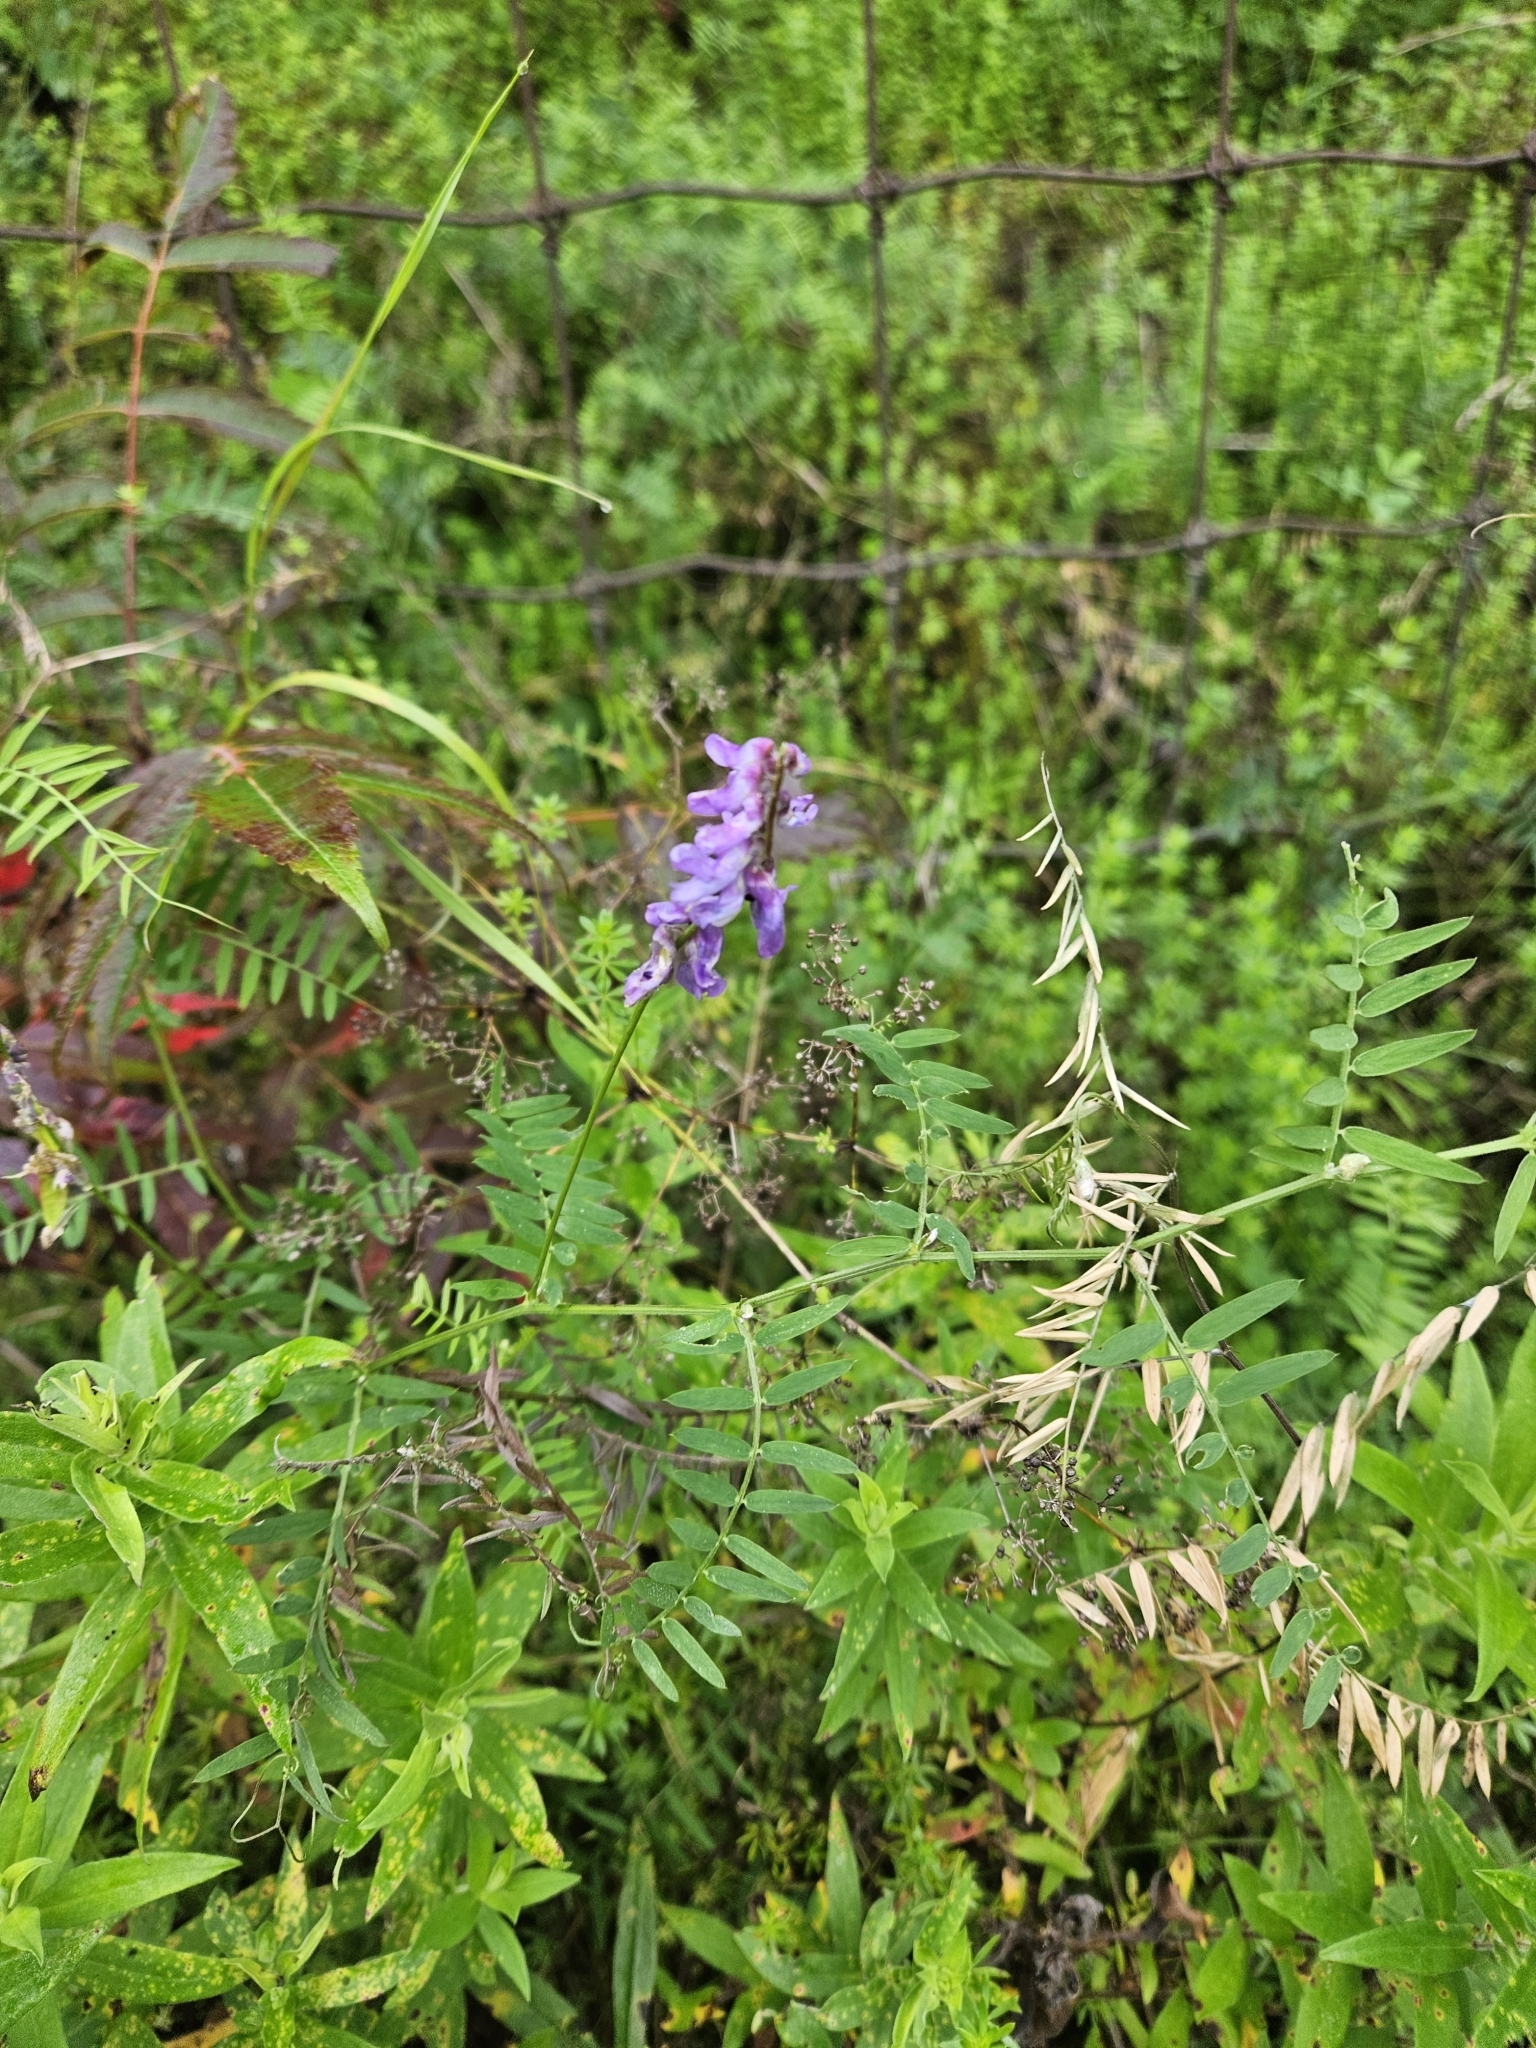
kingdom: Plantae
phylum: Tracheophyta
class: Magnoliopsida
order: Fabales
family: Fabaceae
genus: Vicia
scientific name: Vicia cracca
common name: Bird vetch
